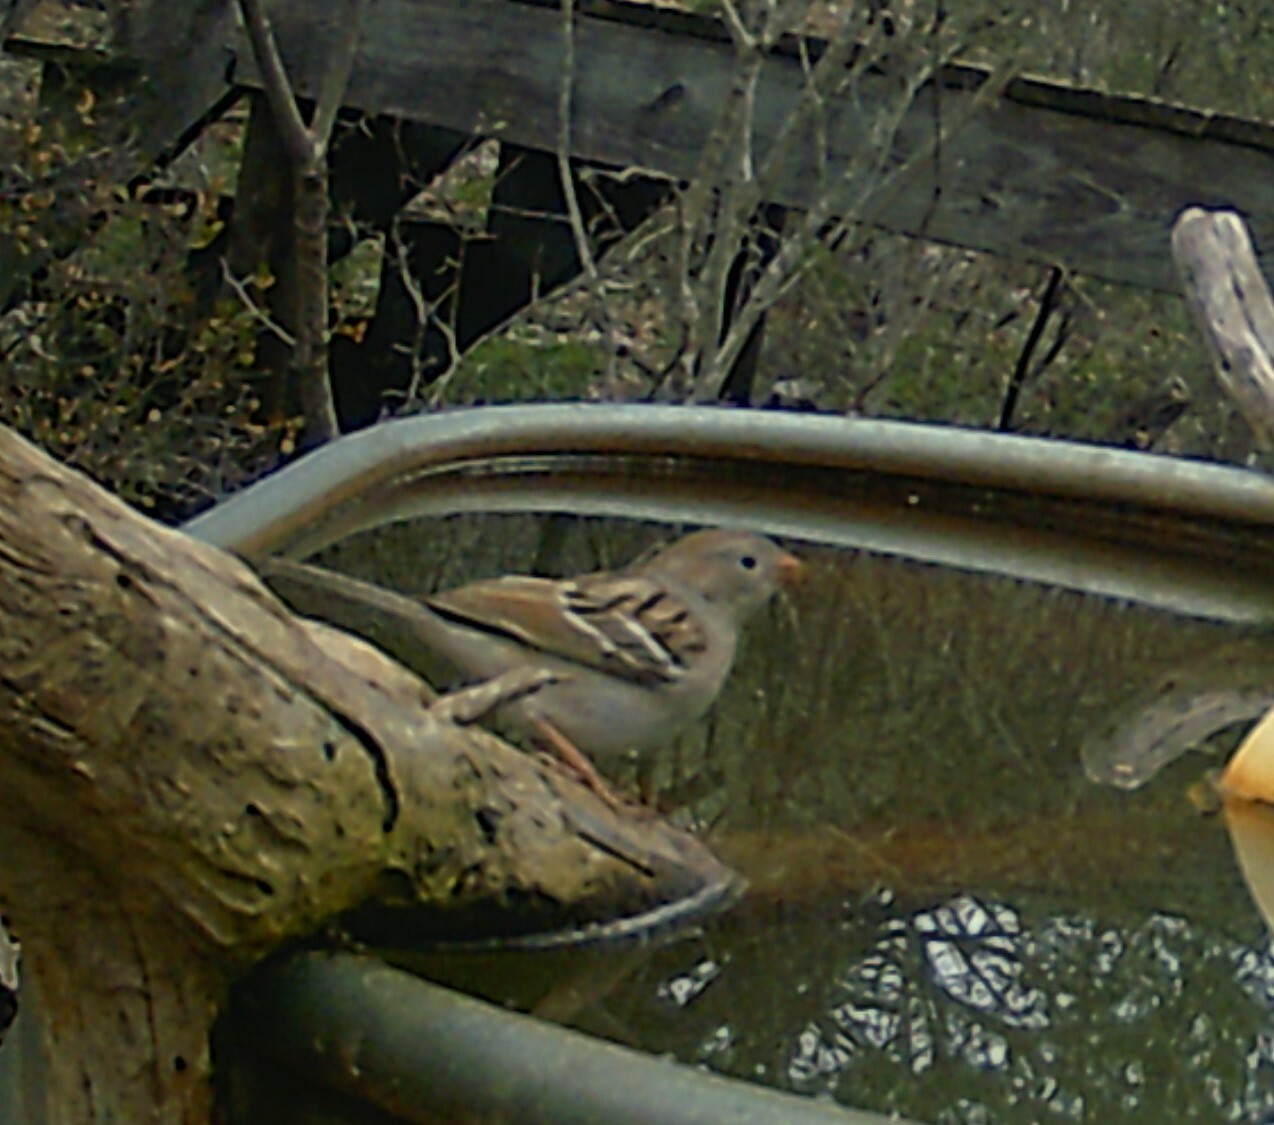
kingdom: Animalia
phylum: Chordata
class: Aves
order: Passeriformes
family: Passerellidae
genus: Spizella
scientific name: Spizella pusilla
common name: Field sparrow
